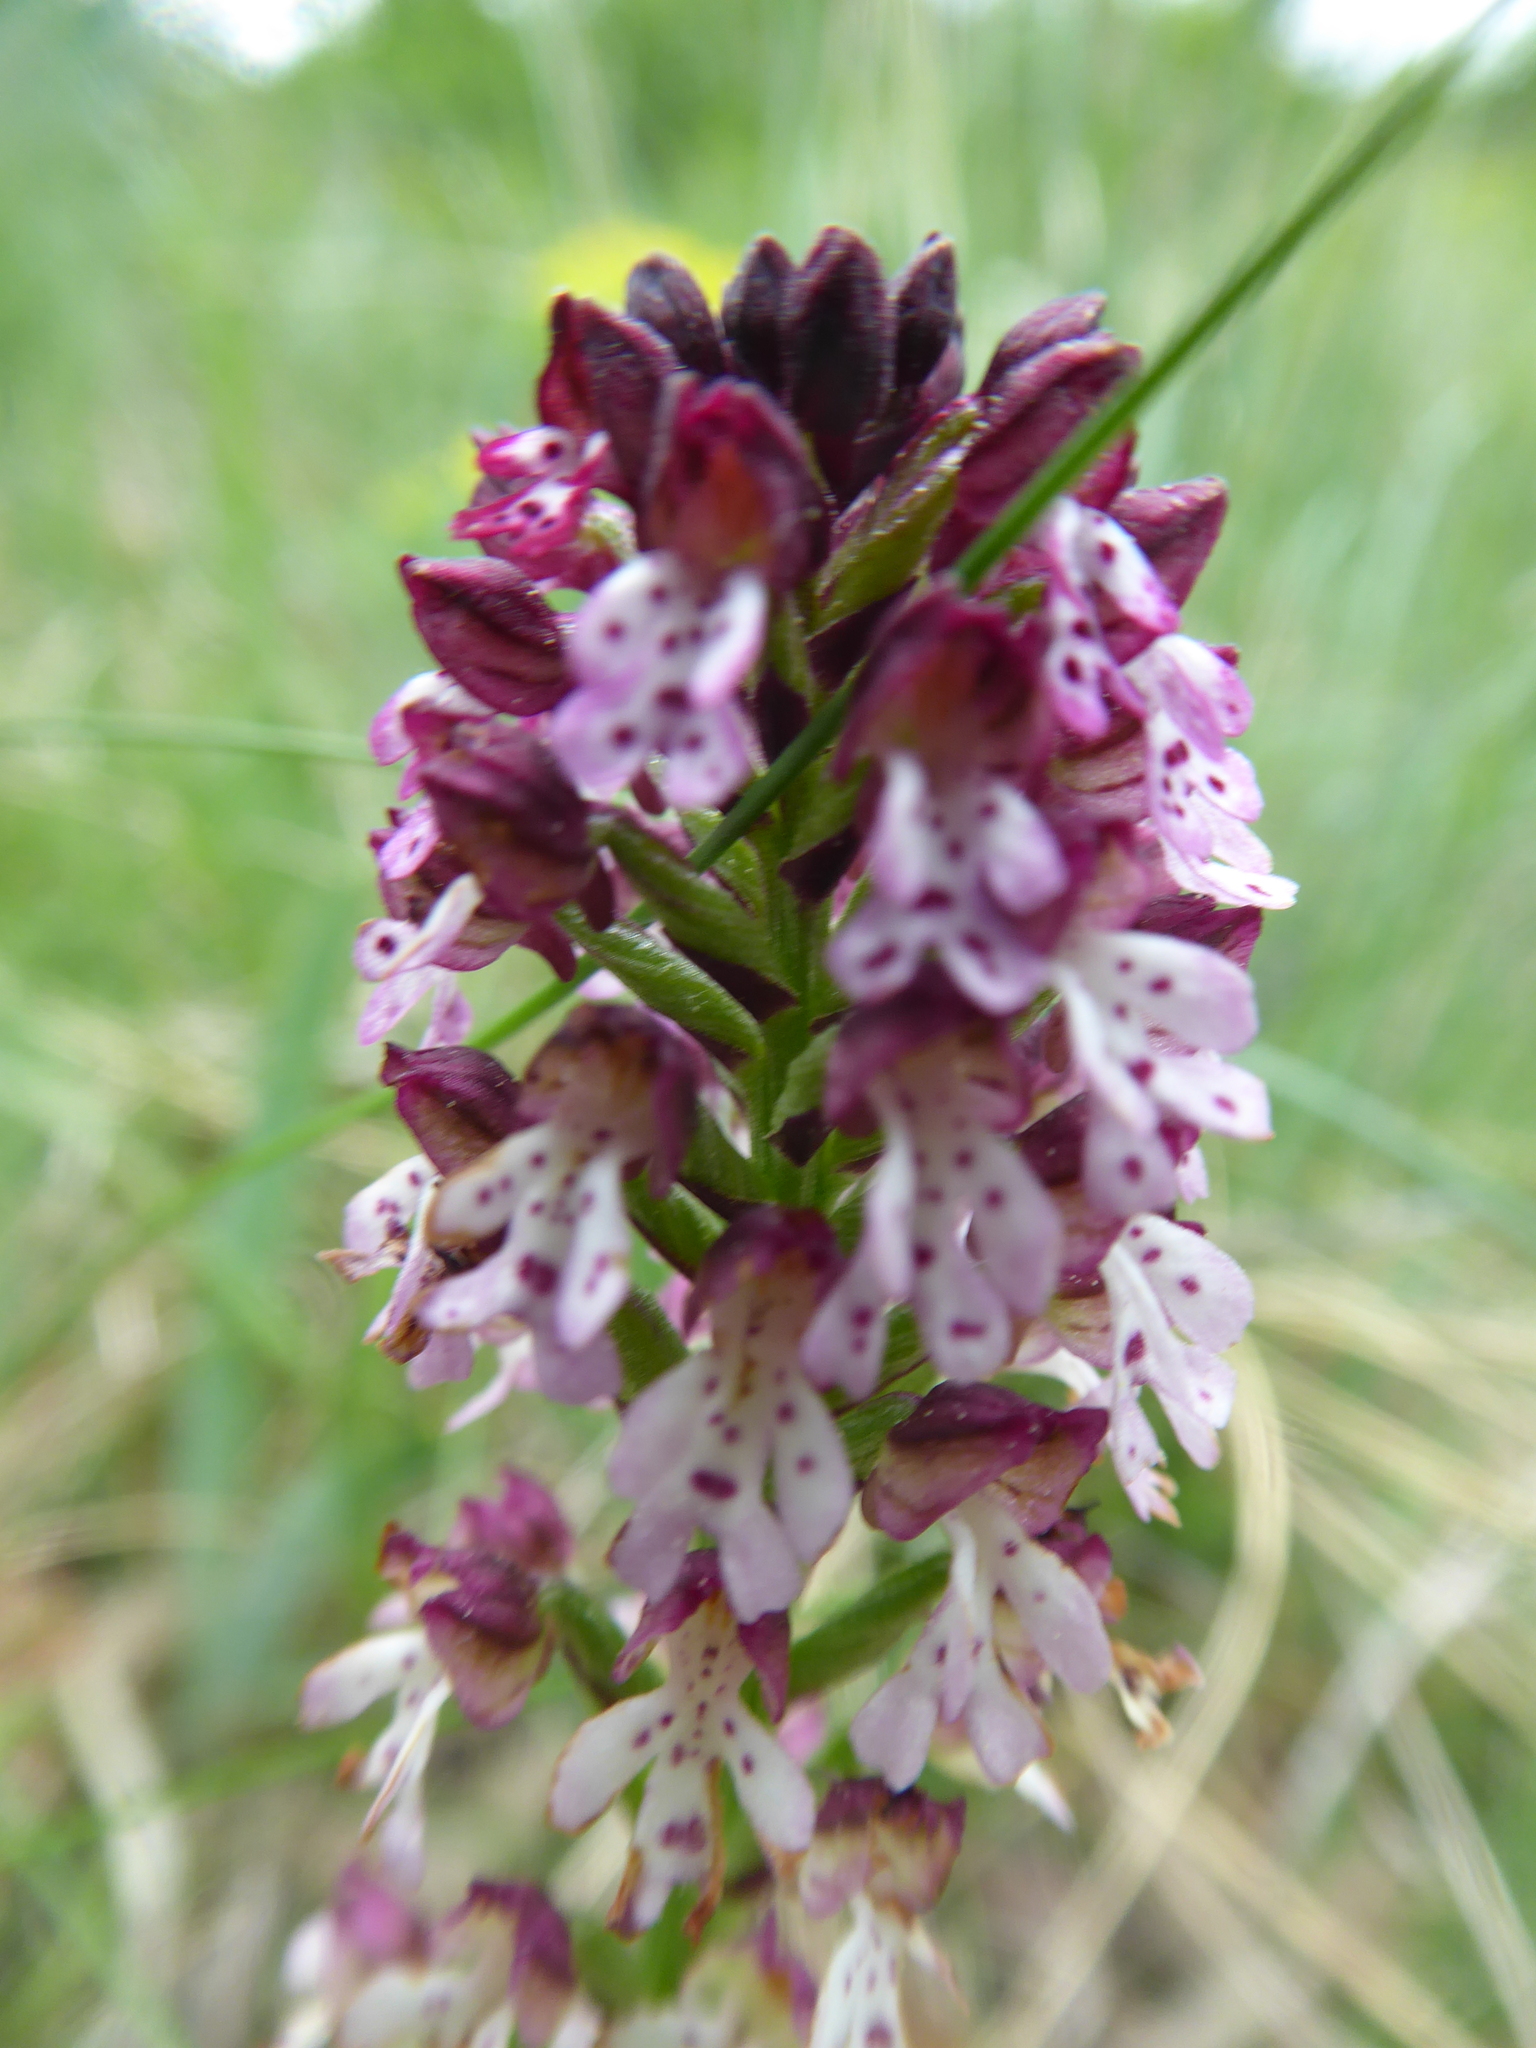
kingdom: Plantae
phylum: Tracheophyta
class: Liliopsida
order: Asparagales
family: Orchidaceae
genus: Neotinea
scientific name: Neotinea ustulata
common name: Burnt orchid
